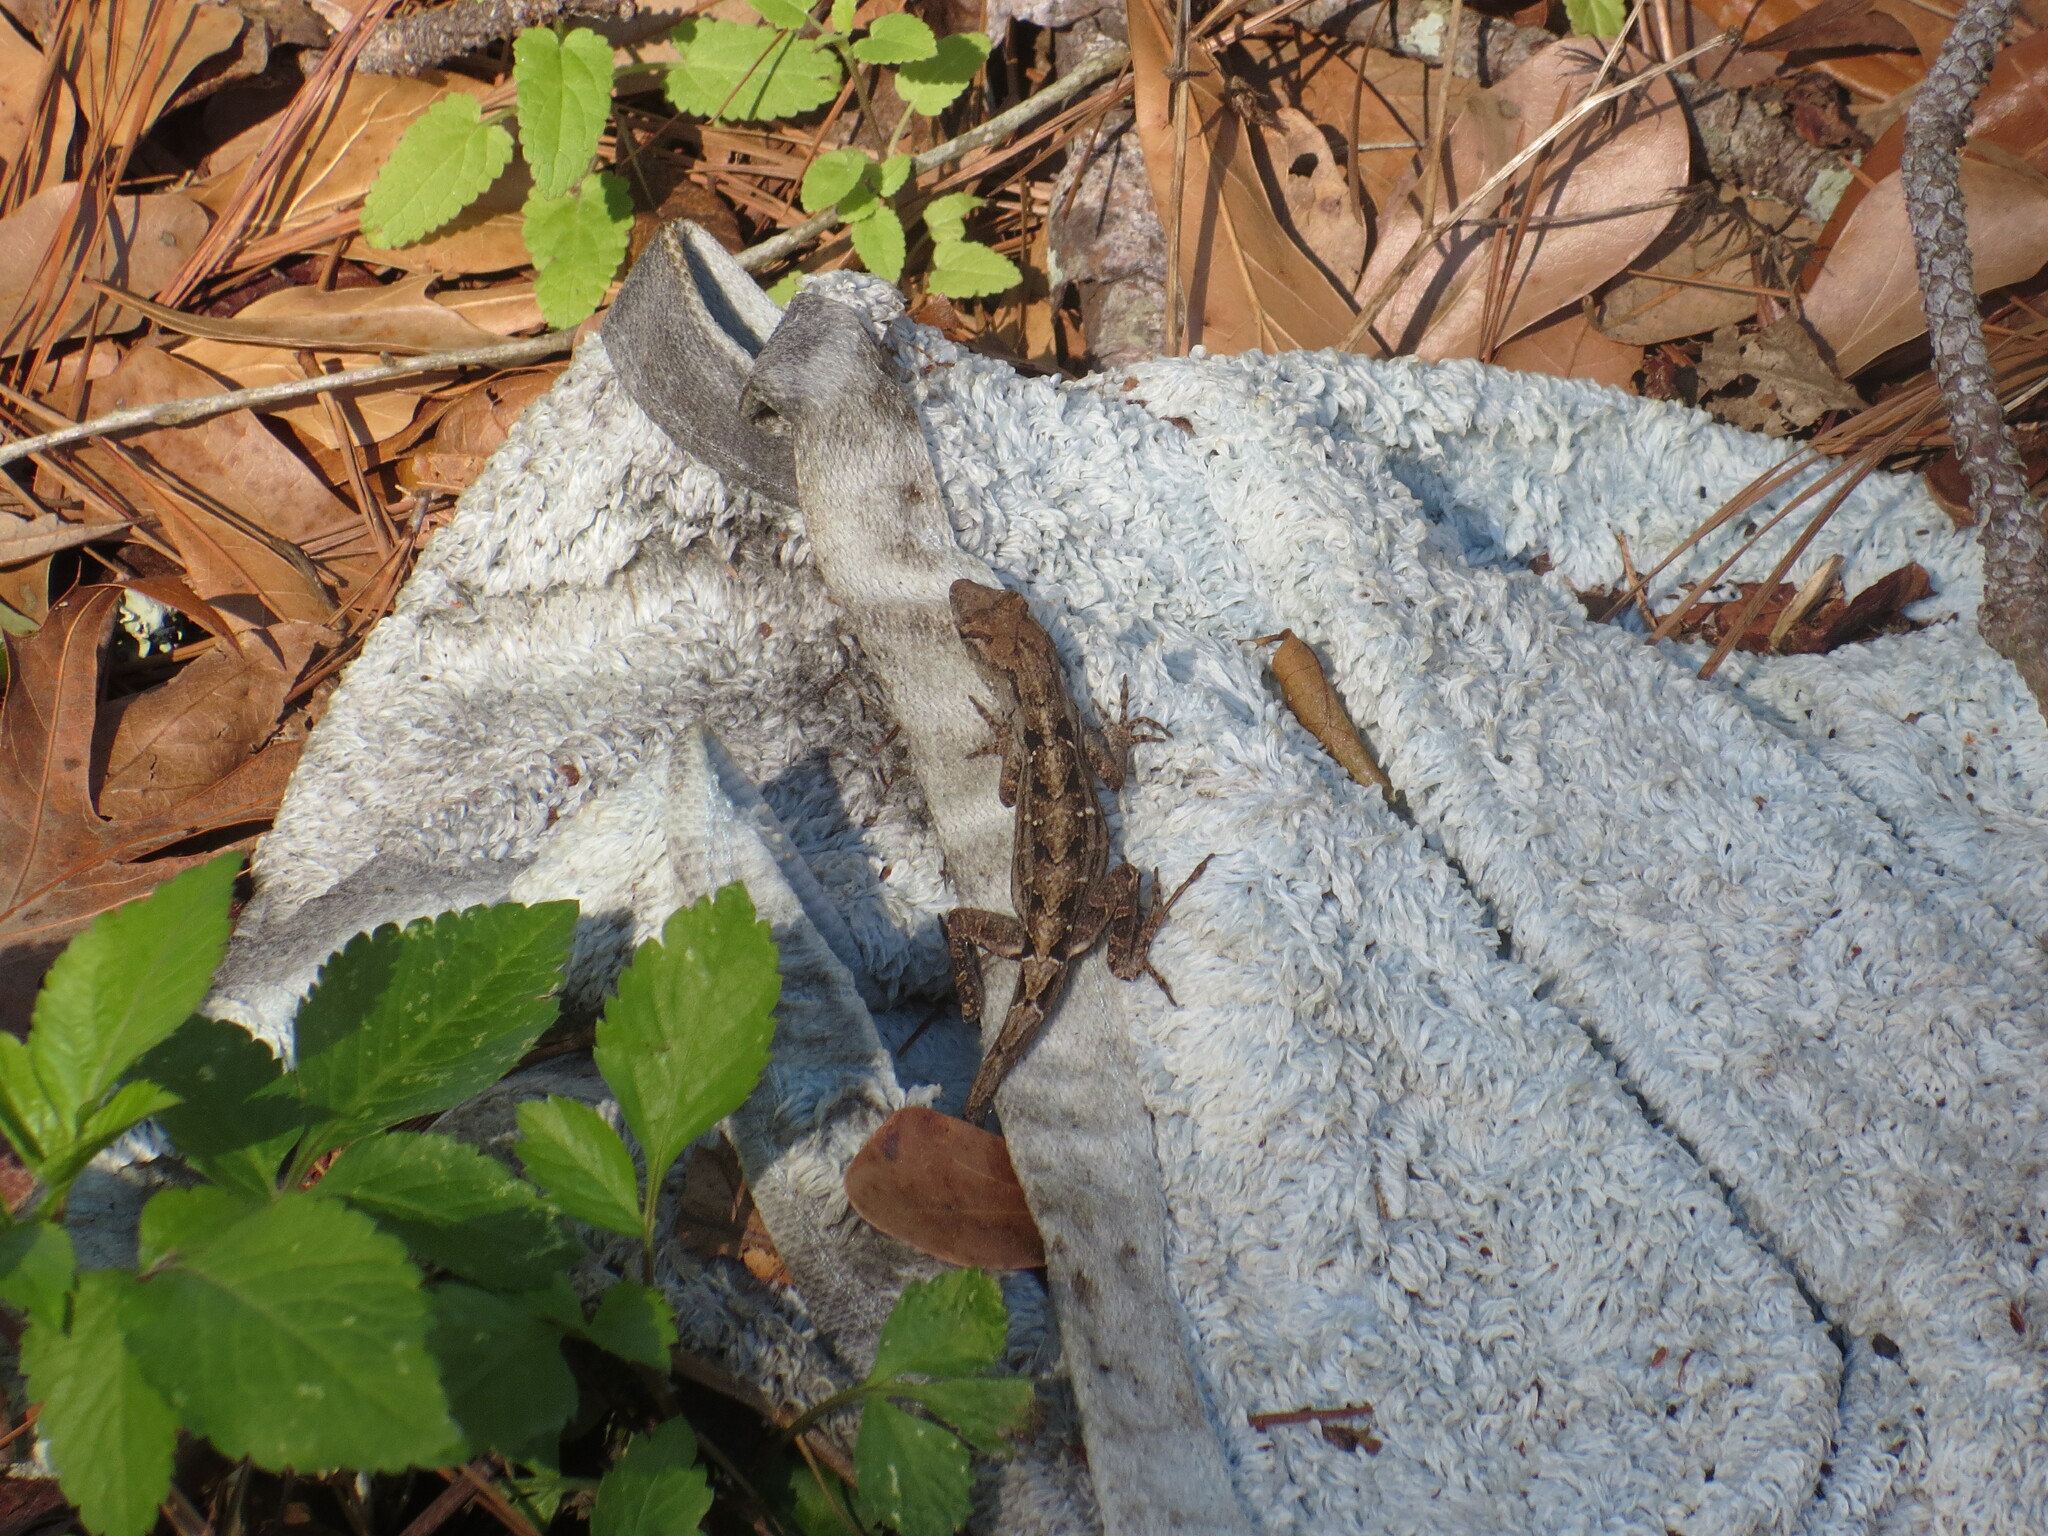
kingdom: Animalia
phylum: Chordata
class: Squamata
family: Dactyloidae
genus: Anolis
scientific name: Anolis sagrei
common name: Brown anole
